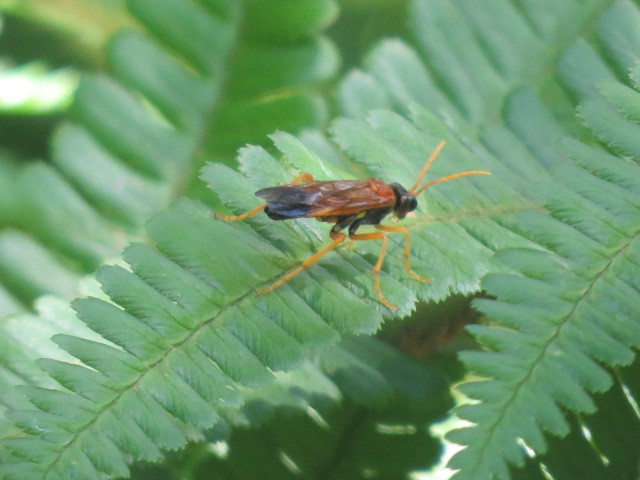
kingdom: Animalia
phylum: Arthropoda
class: Insecta
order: Hymenoptera
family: Tenthredinidae
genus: Tenthredo
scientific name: Tenthredo campestris
